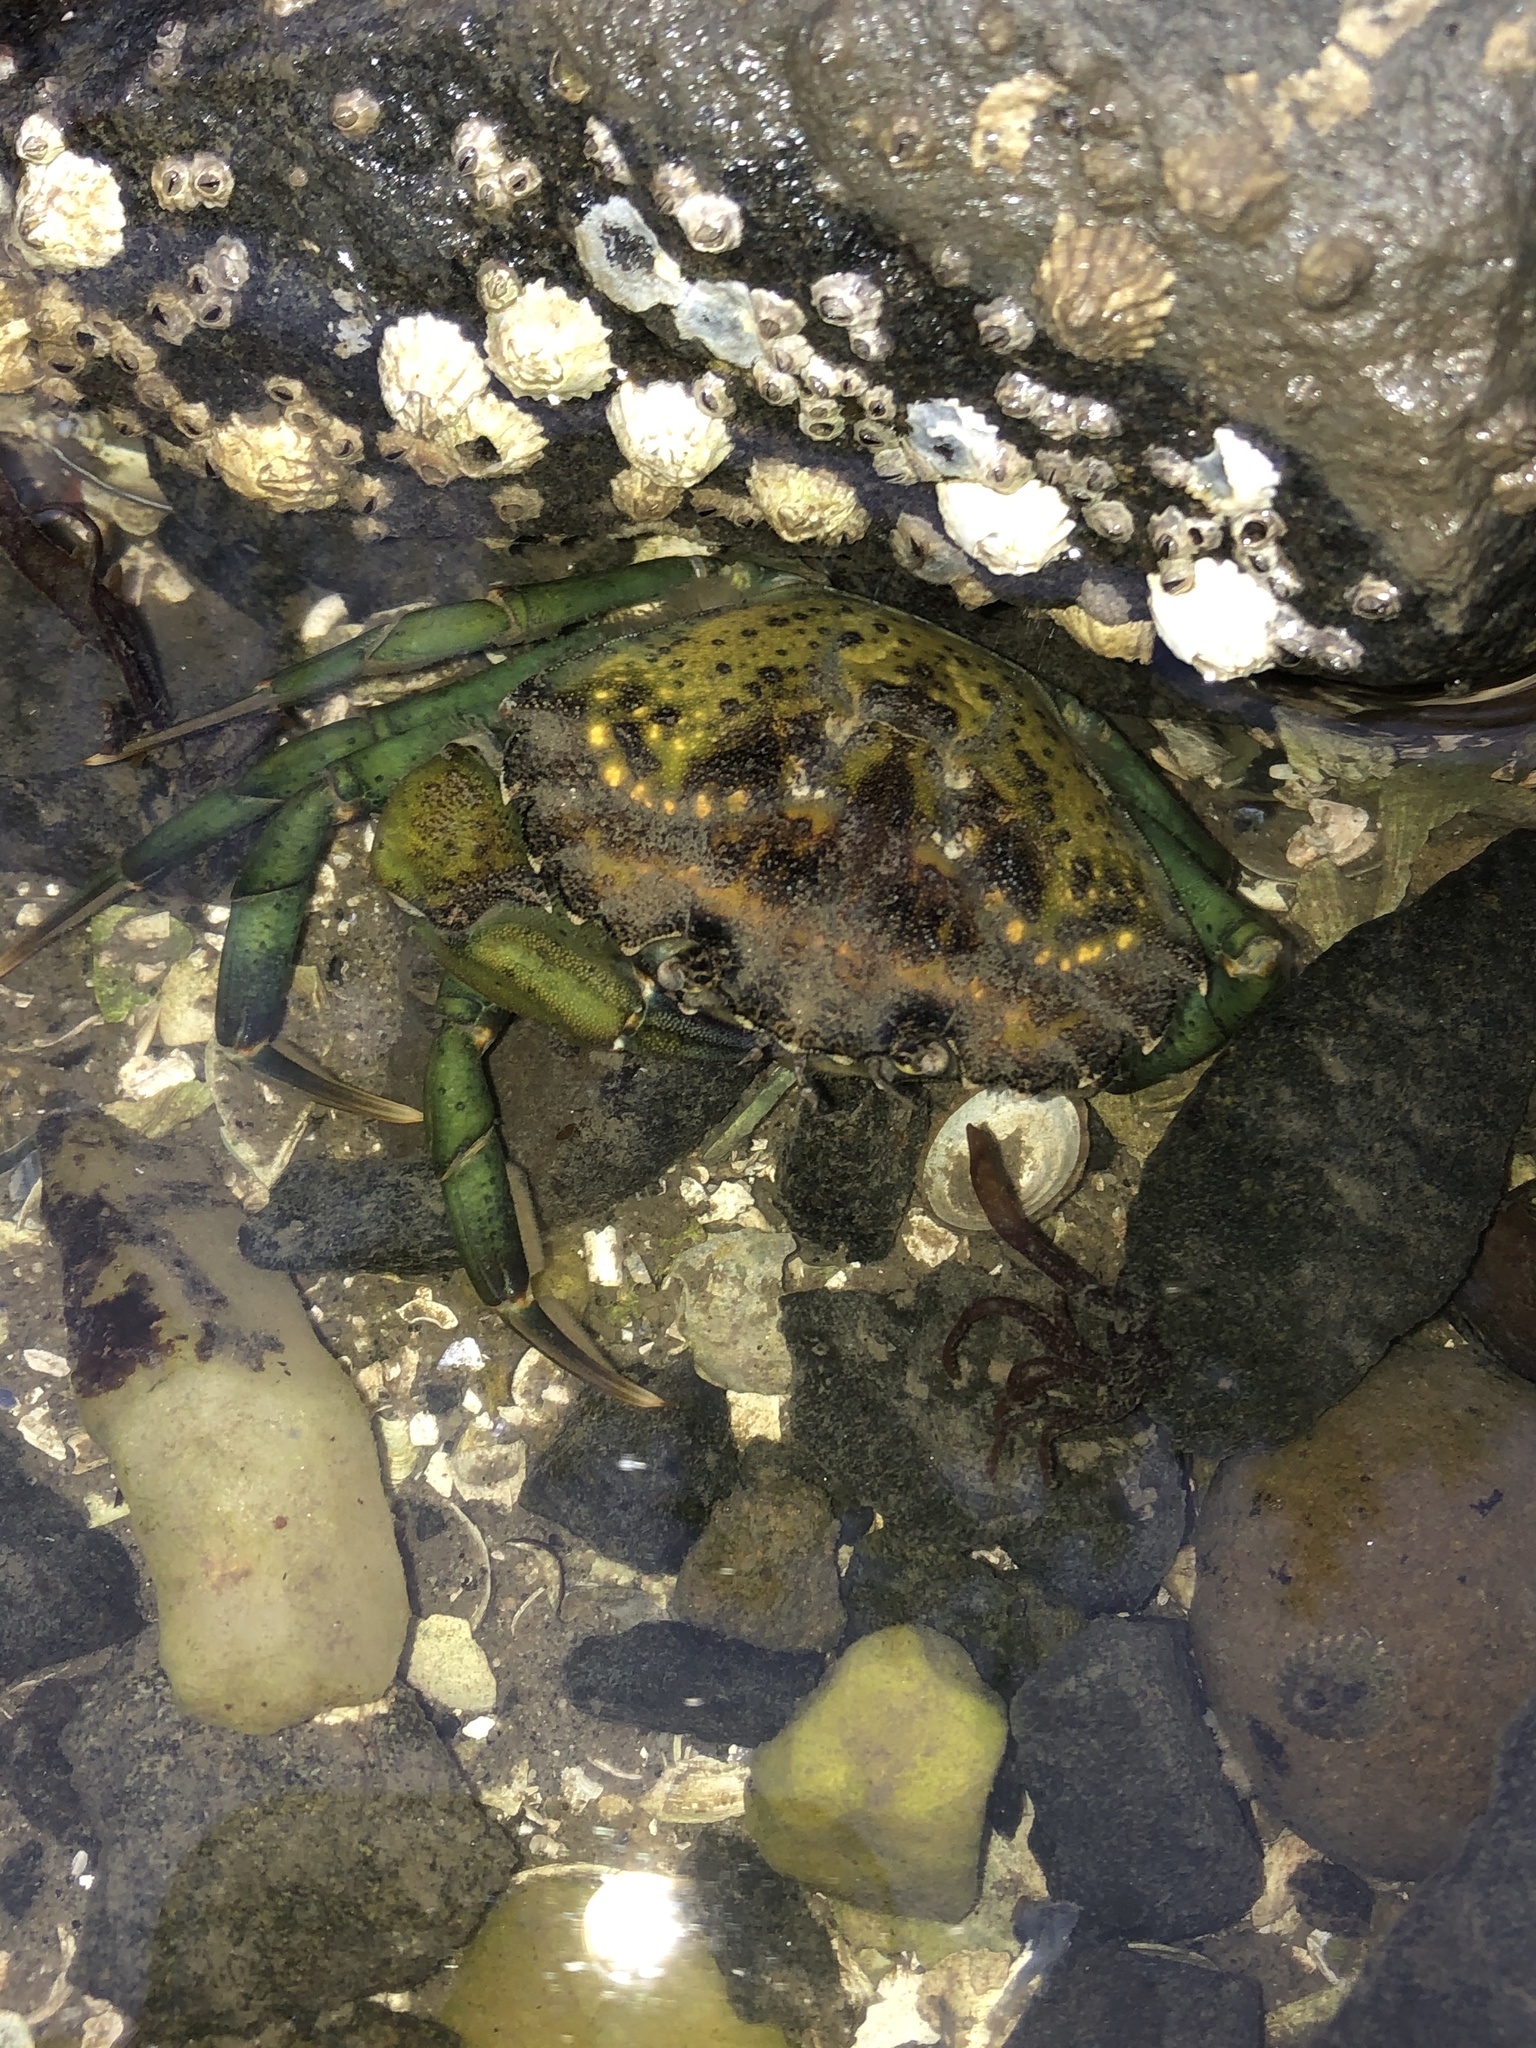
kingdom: Animalia
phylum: Arthropoda
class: Malacostraca
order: Decapoda
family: Carcinidae
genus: Carcinus
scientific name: Carcinus maenas
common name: European green crab
